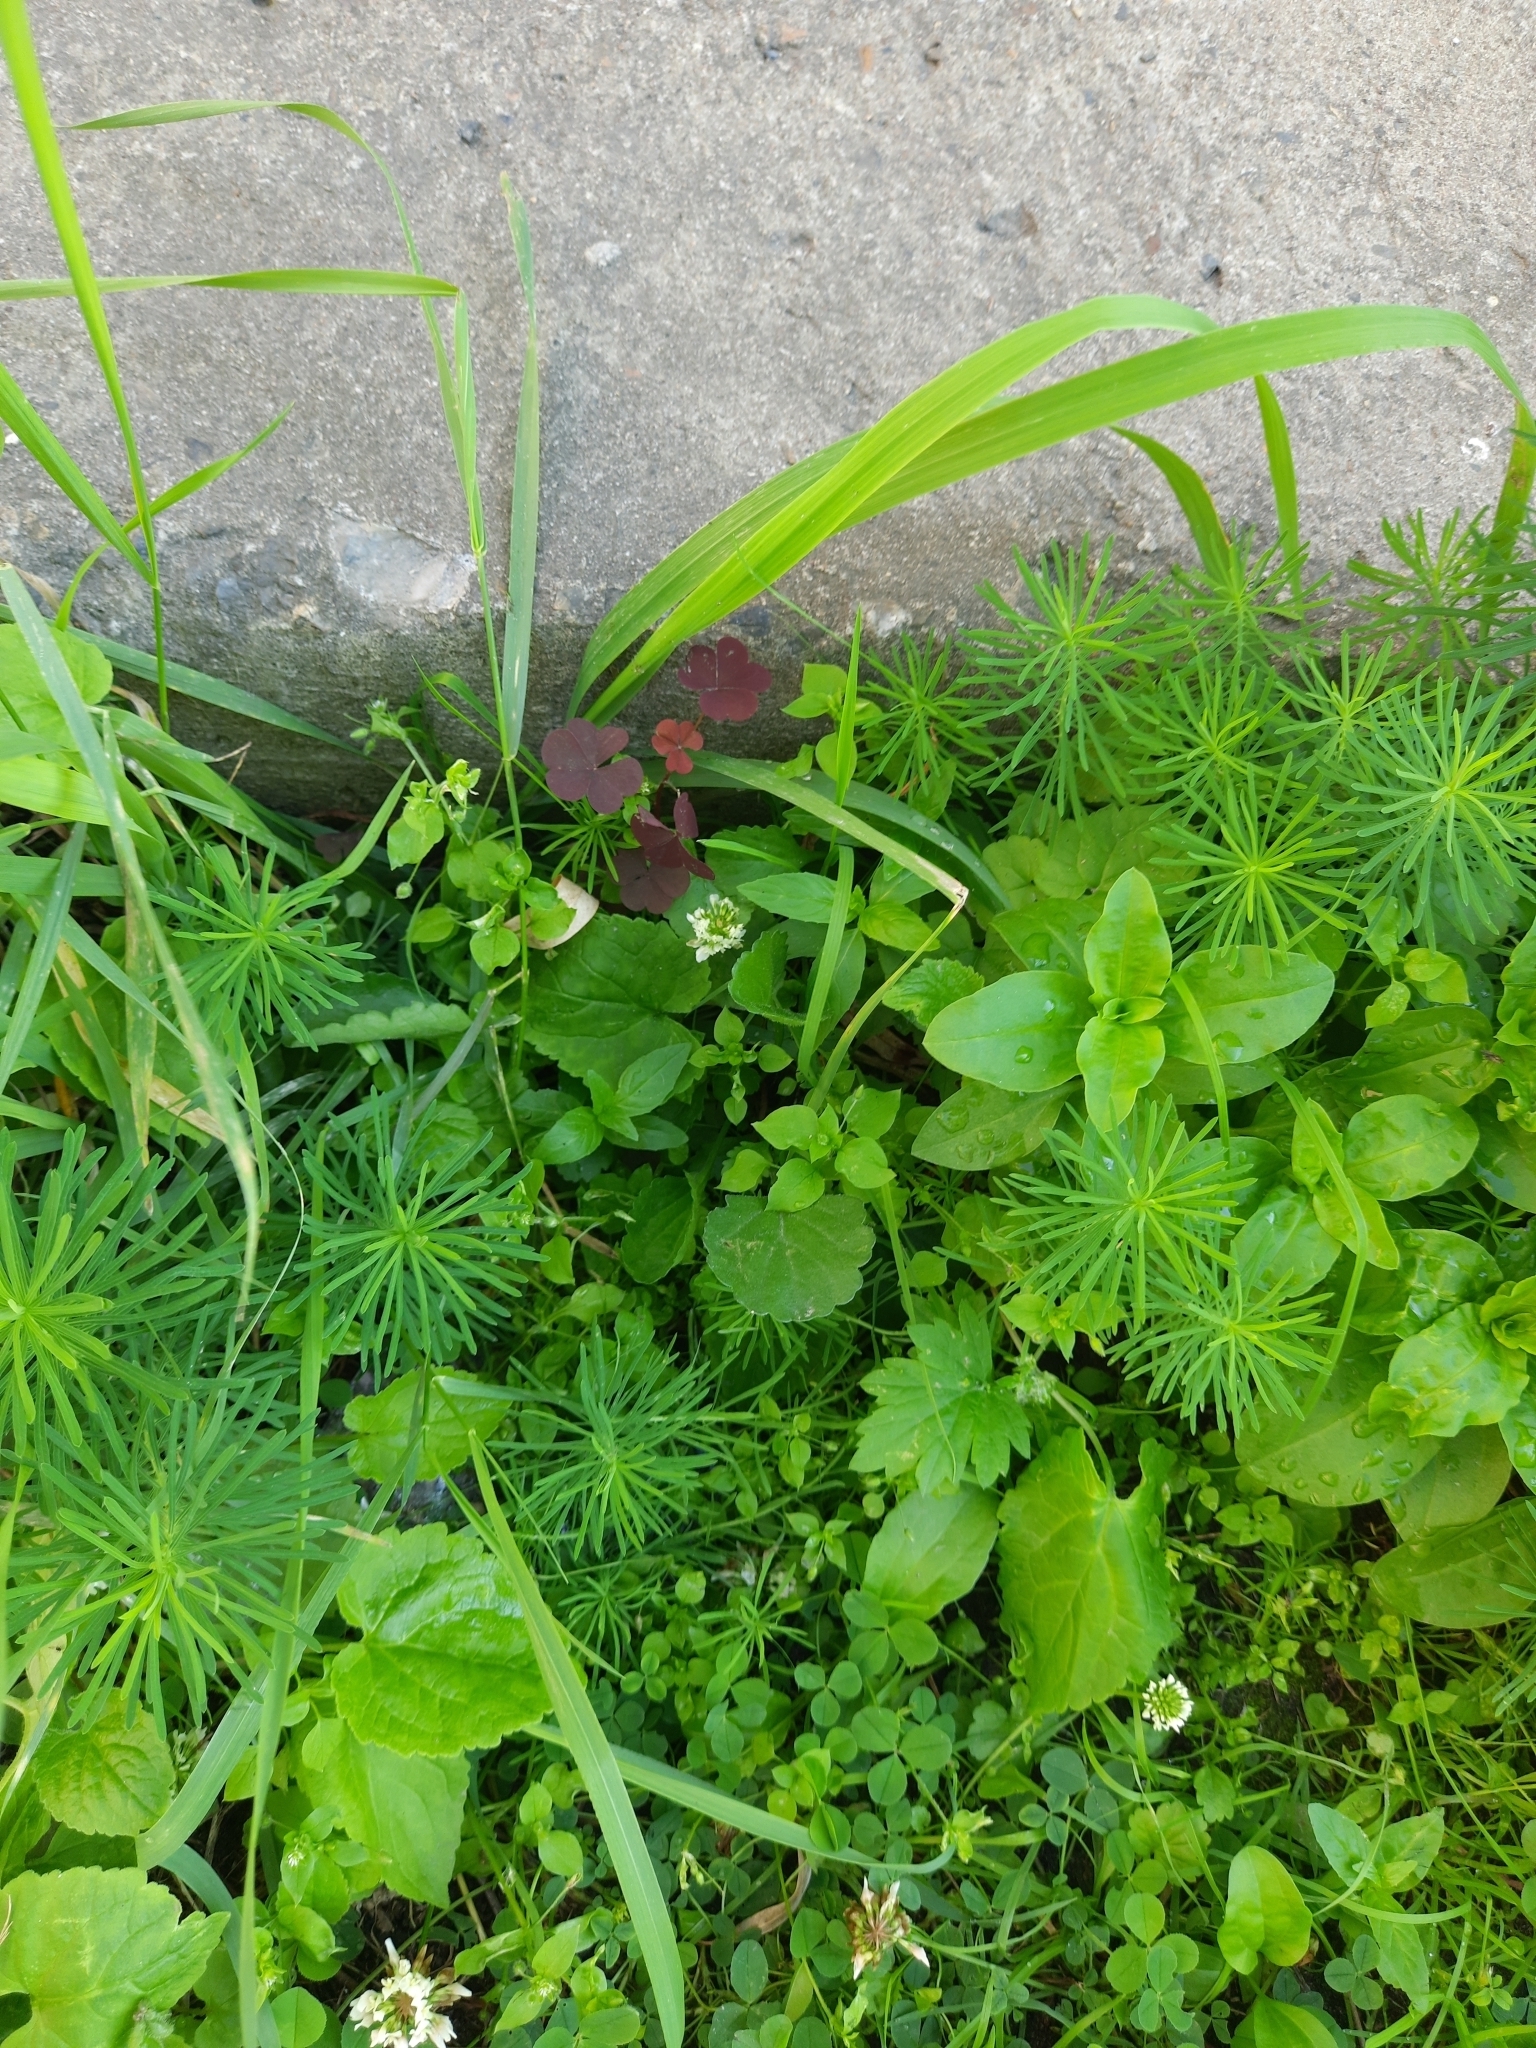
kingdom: Plantae
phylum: Tracheophyta
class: Magnoliopsida
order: Malpighiales
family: Euphorbiaceae
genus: Euphorbia
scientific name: Euphorbia cyparissias
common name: Cypress spurge
